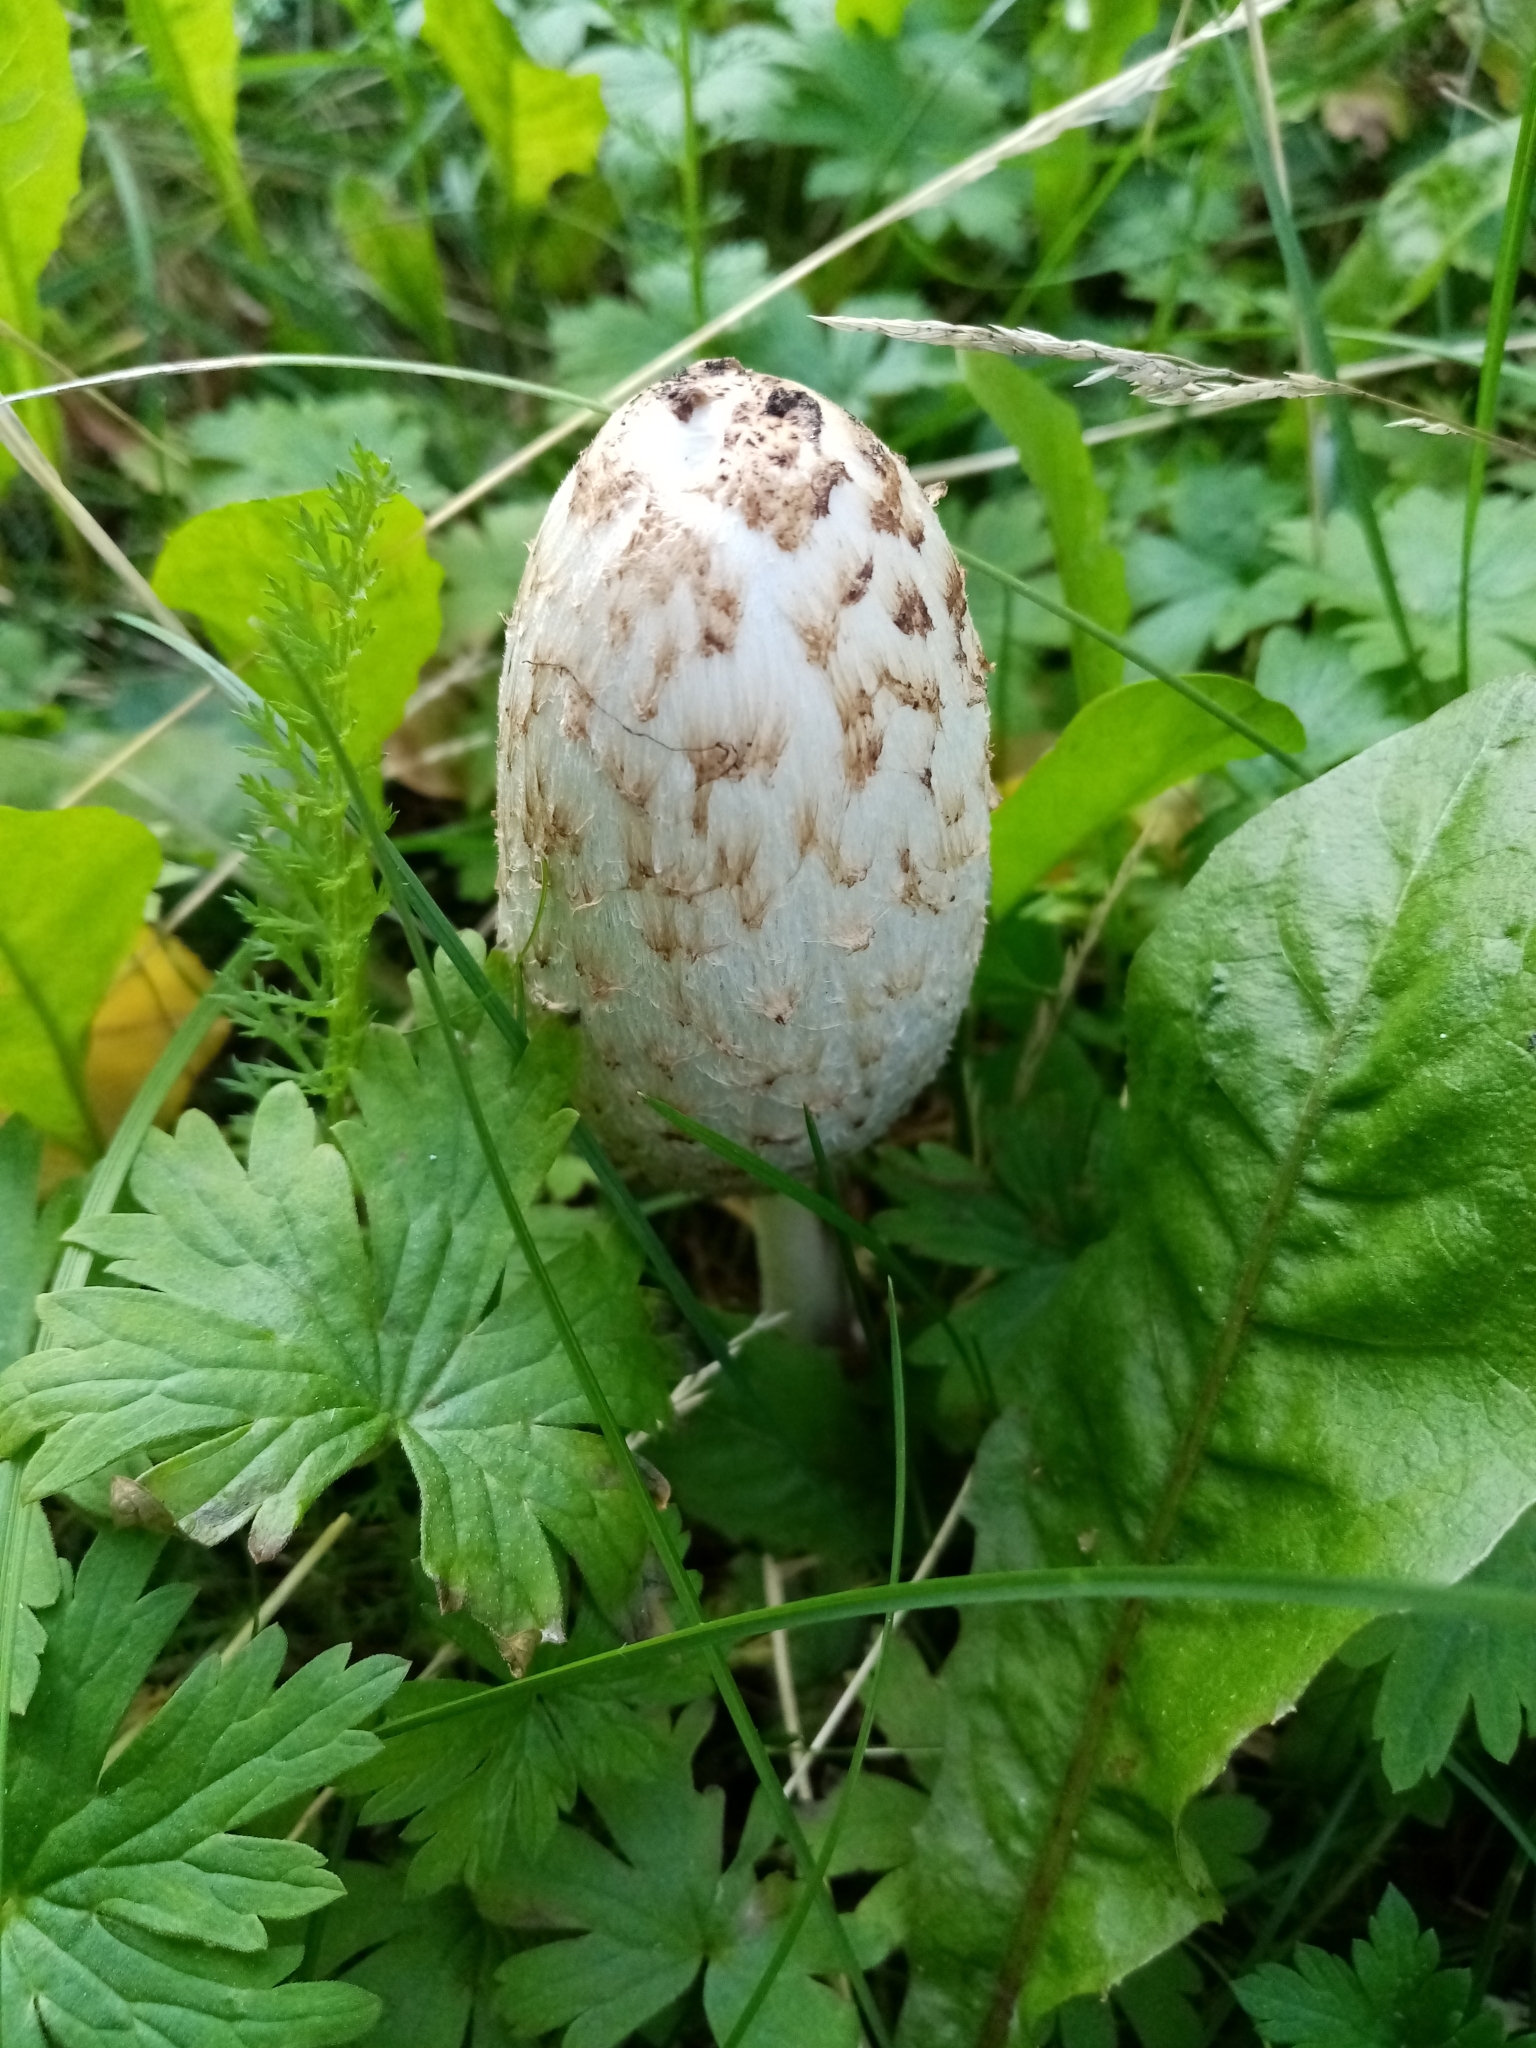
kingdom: Fungi
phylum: Basidiomycota
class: Agaricomycetes
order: Agaricales
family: Agaricaceae
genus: Coprinus
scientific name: Coprinus comatus
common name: Lawyer's wig
